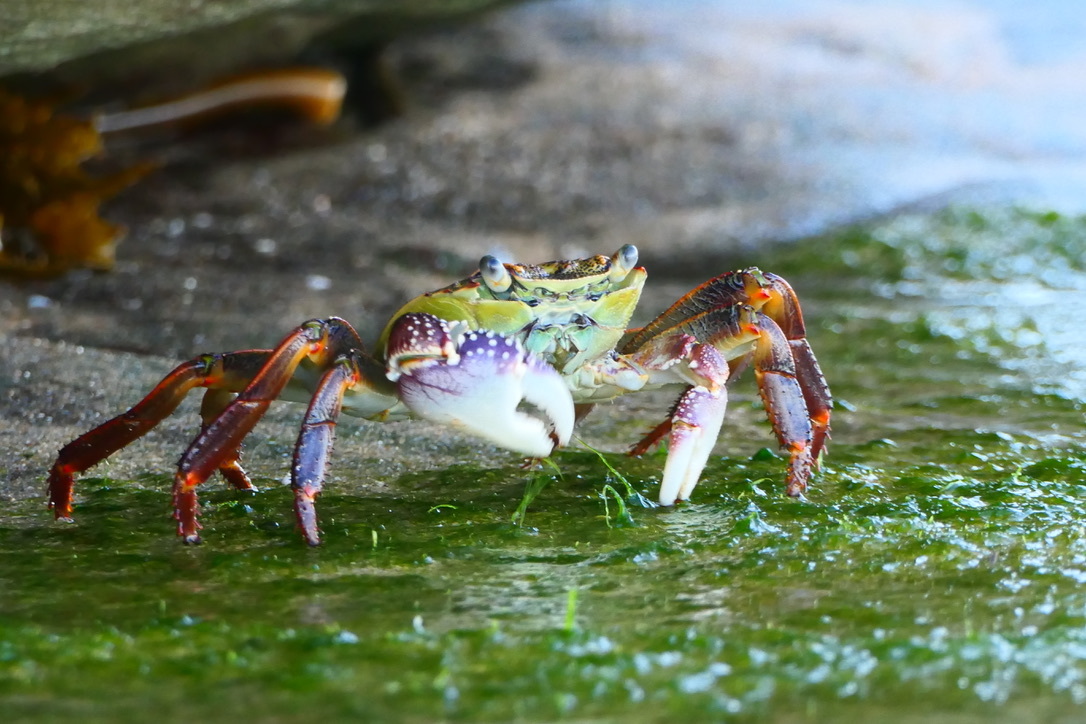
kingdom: Animalia
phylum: Arthropoda
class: Malacostraca
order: Decapoda
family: Grapsidae
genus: Leptograpsus
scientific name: Leptograpsus variegatus
